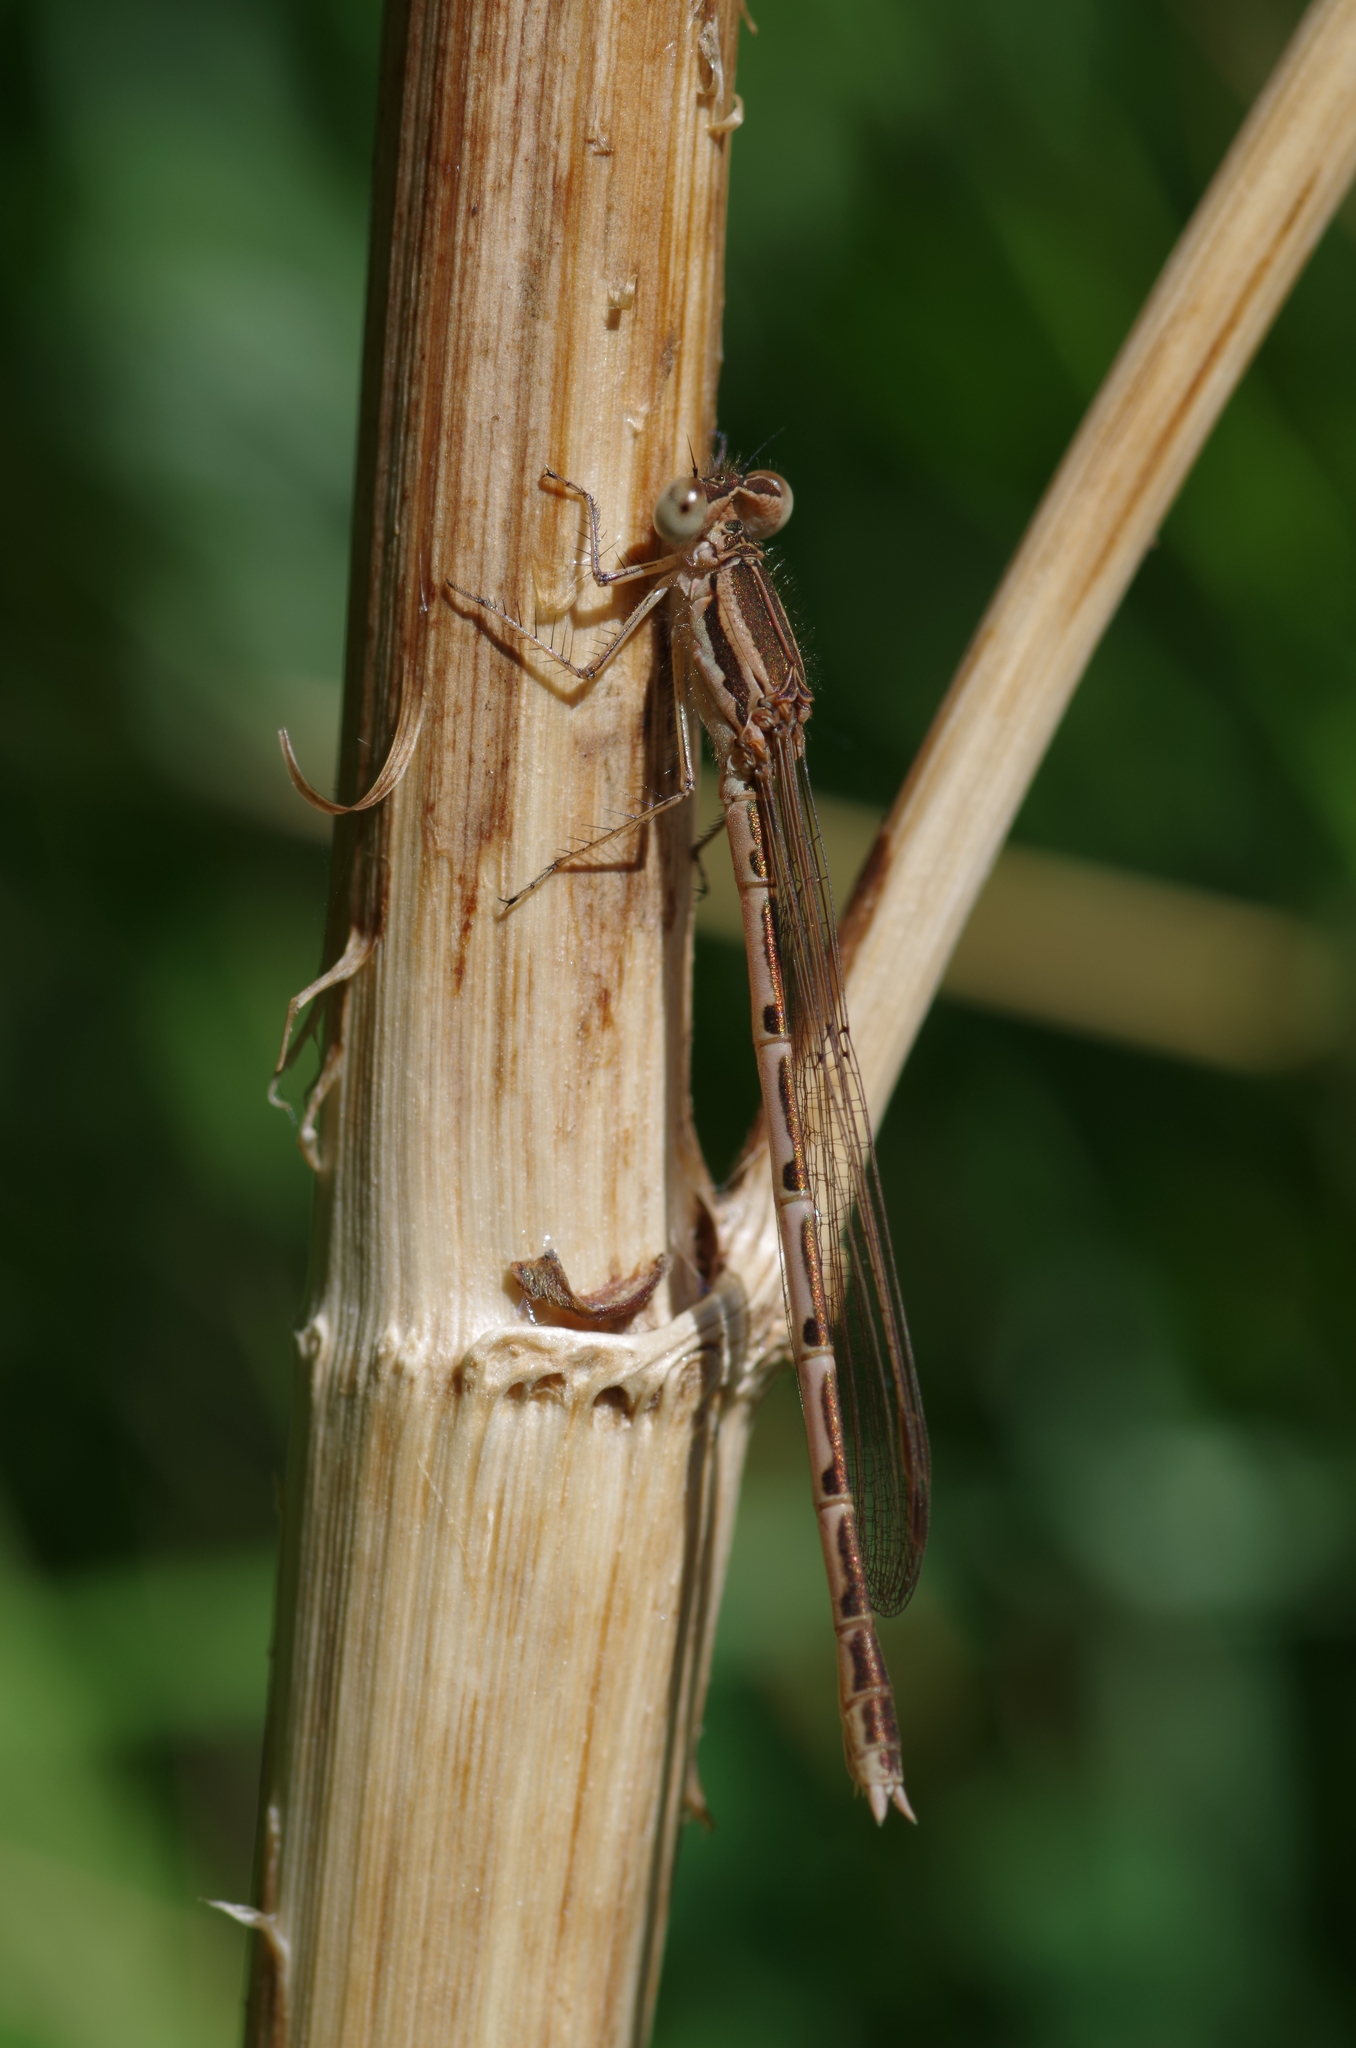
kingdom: Animalia
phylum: Arthropoda
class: Insecta
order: Odonata
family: Lestidae
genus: Sympecma
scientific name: Sympecma fusca
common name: Common winter damsel
